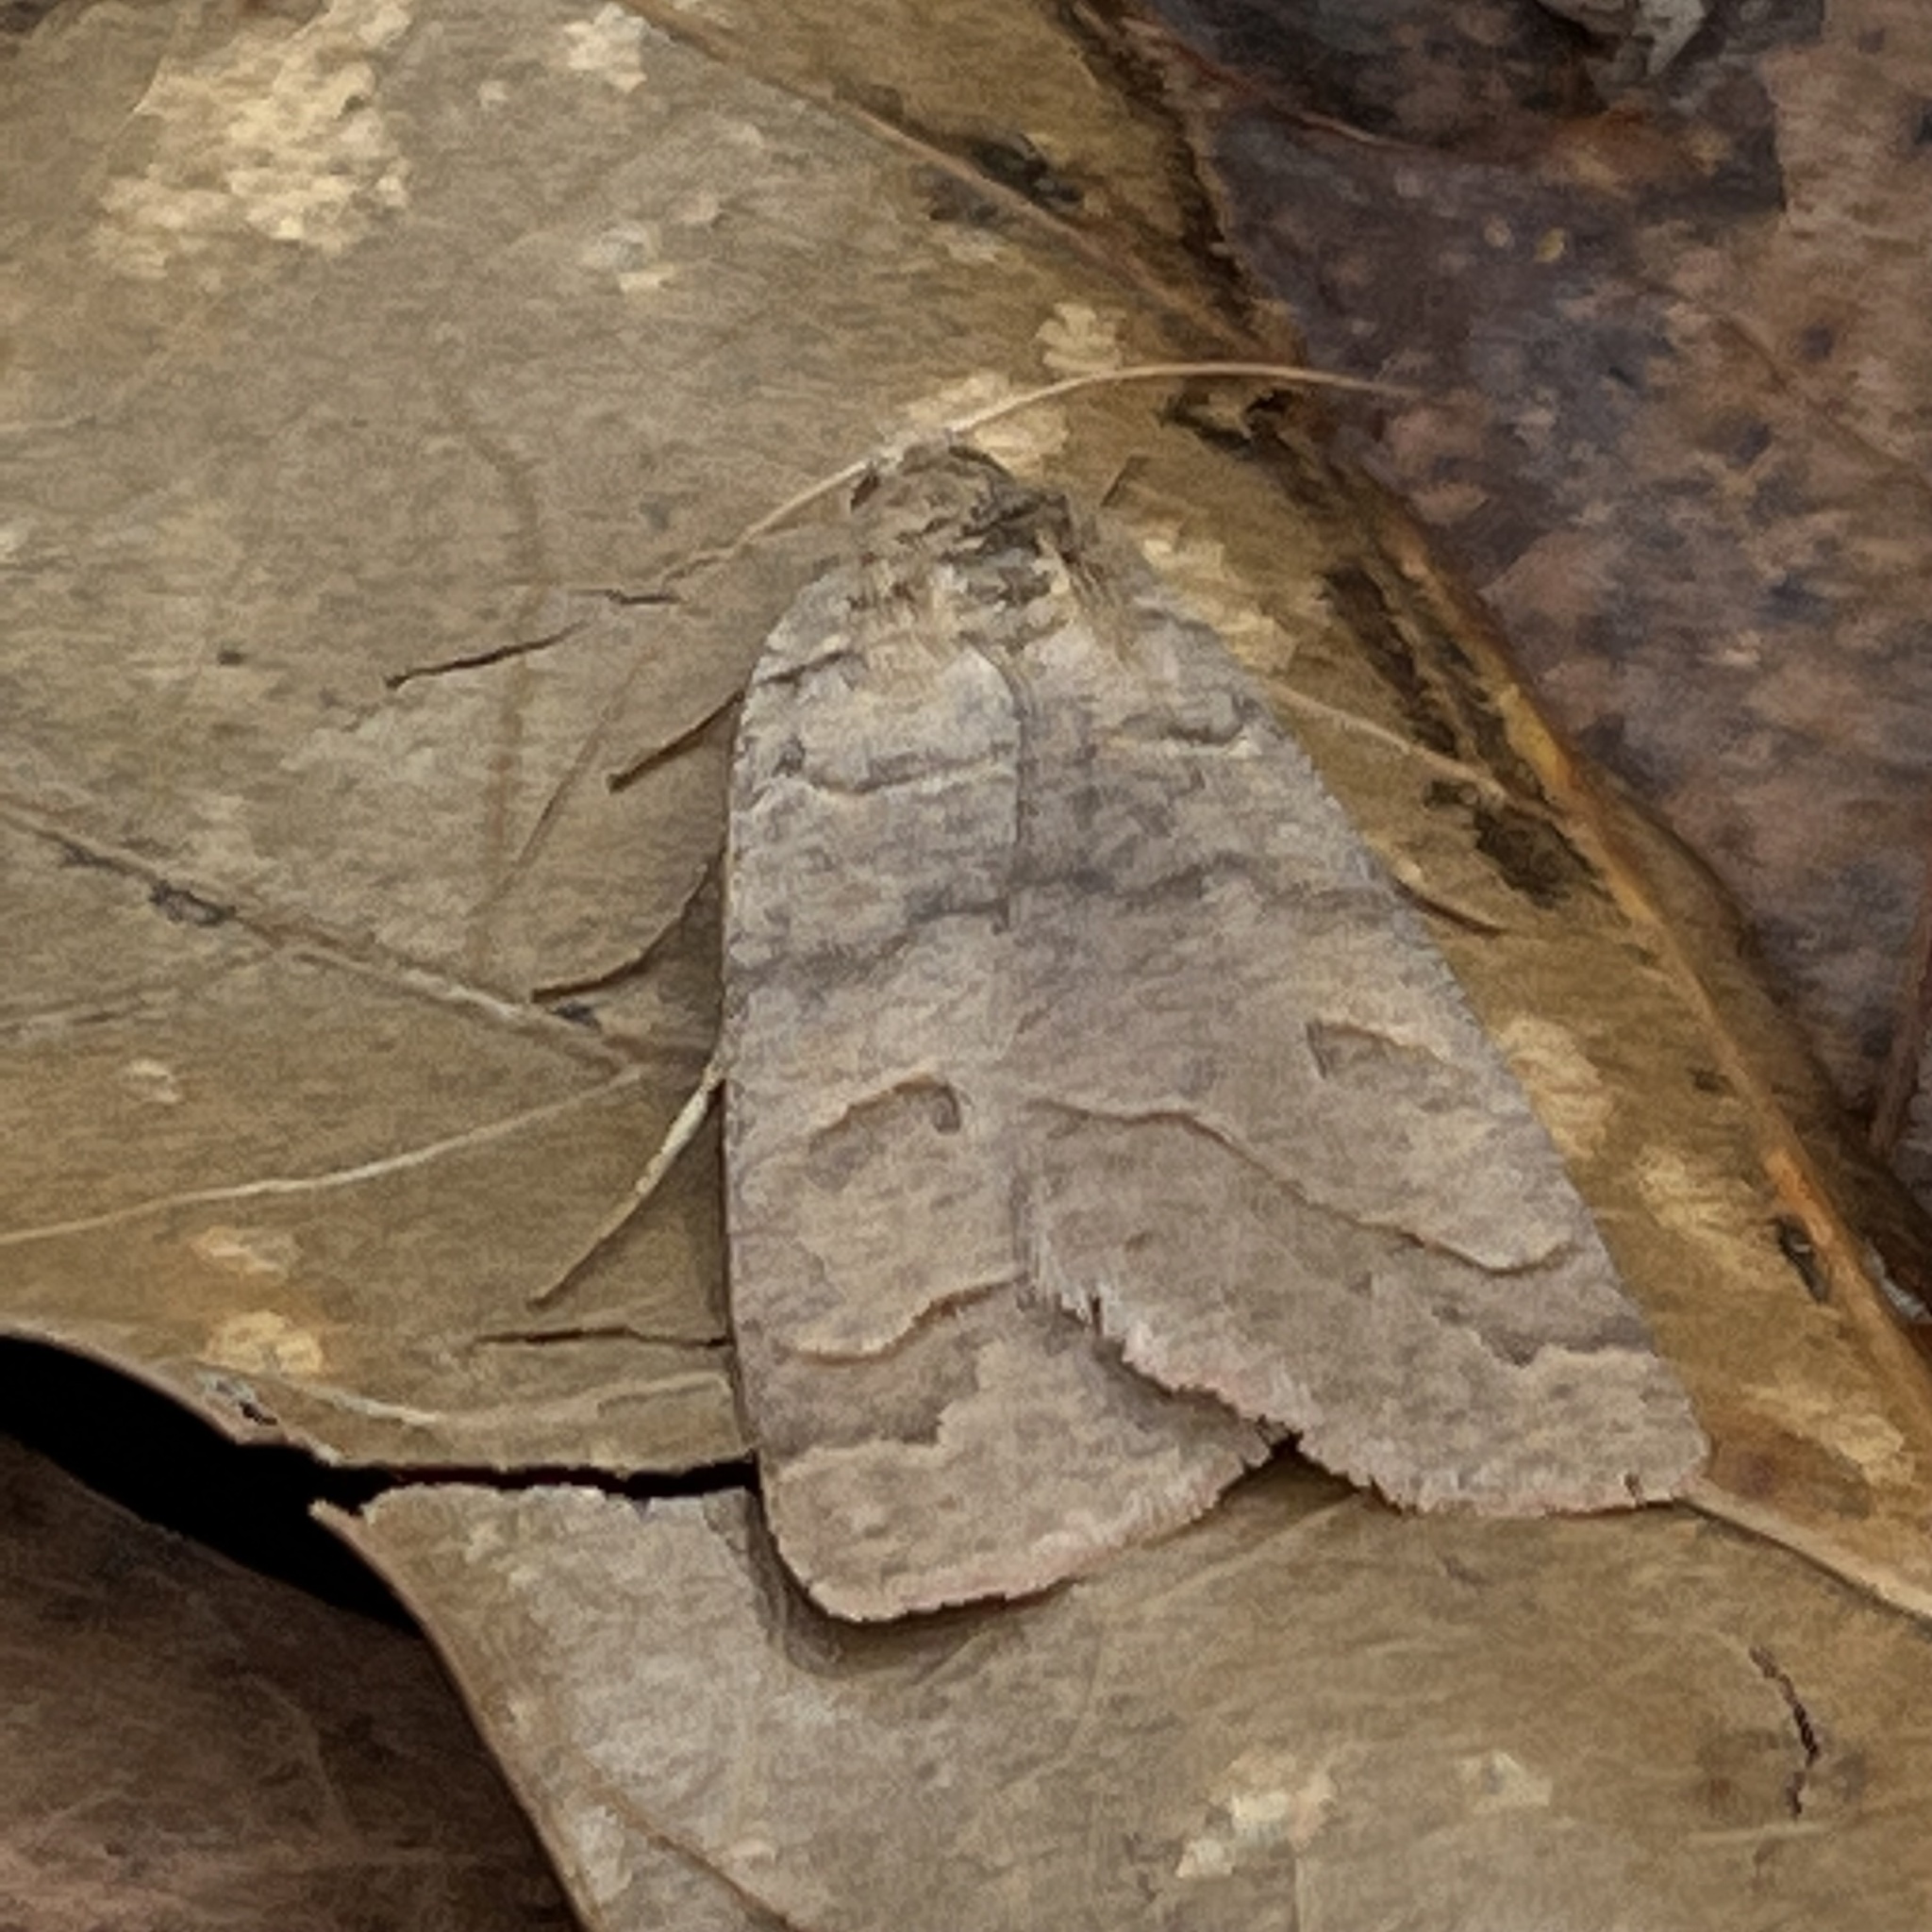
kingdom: Animalia
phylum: Arthropoda
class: Insecta
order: Lepidoptera
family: Erebidae
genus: Phoberia
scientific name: Phoberia atomaris
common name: Common oak moth
